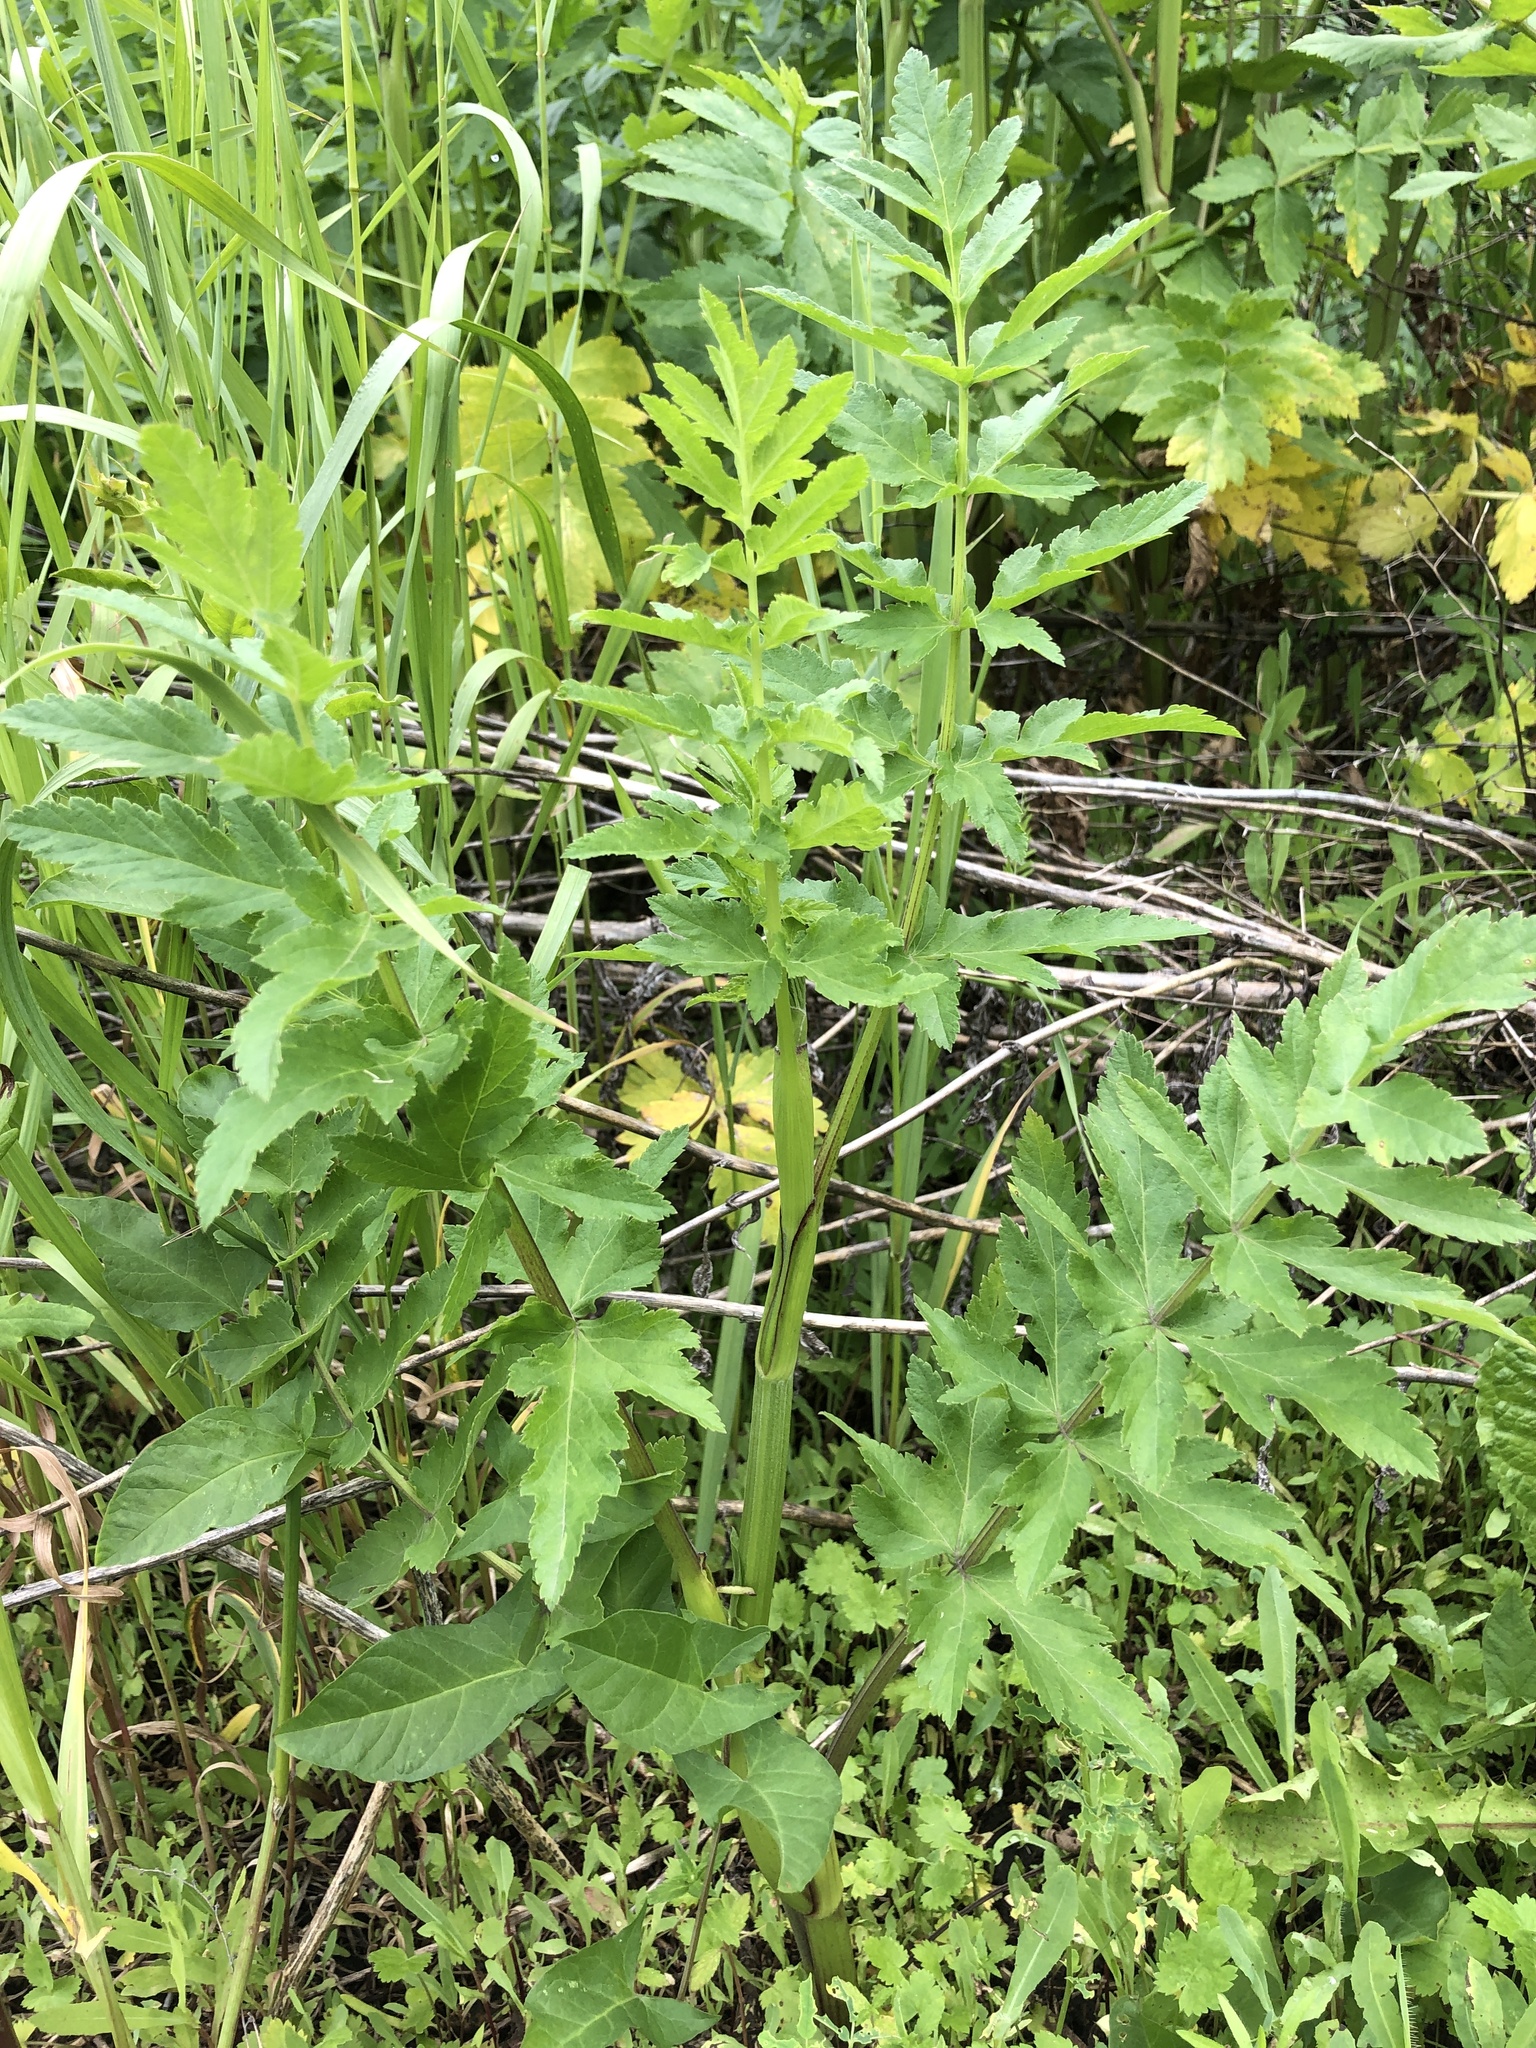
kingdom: Plantae
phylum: Tracheophyta
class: Magnoliopsida
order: Apiales
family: Apiaceae
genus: Pastinaca
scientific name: Pastinaca sativa
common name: Wild parsnip
